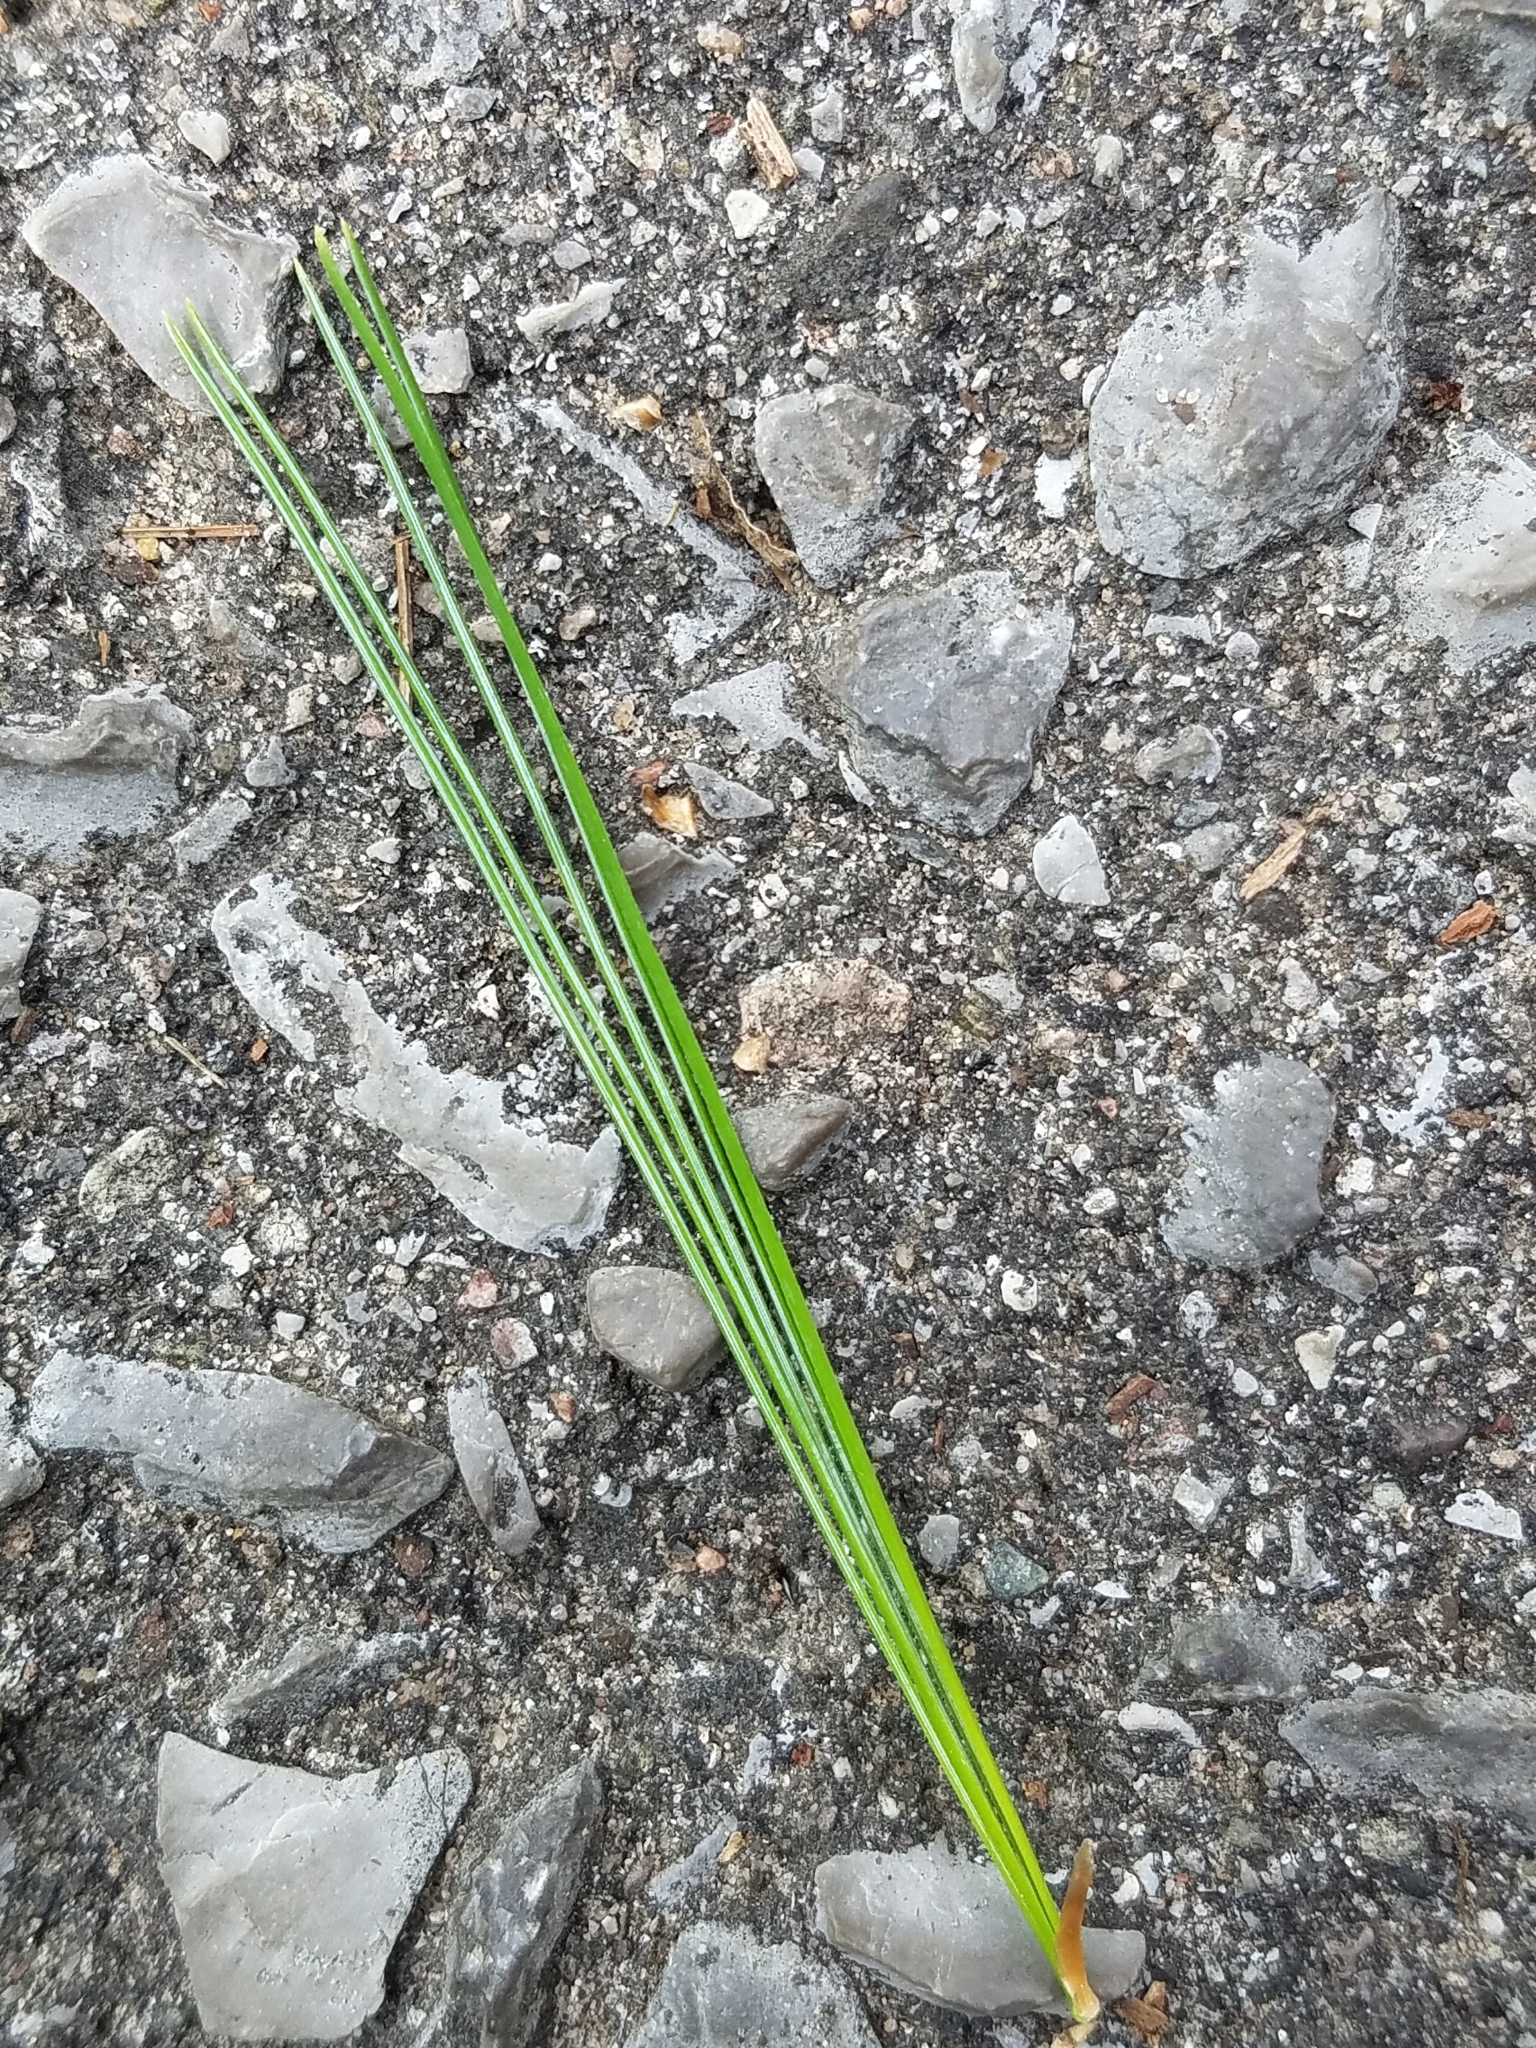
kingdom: Plantae
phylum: Tracheophyta
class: Pinopsida
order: Pinales
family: Pinaceae
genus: Pinus
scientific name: Pinus strobus
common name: Weymouth pine
